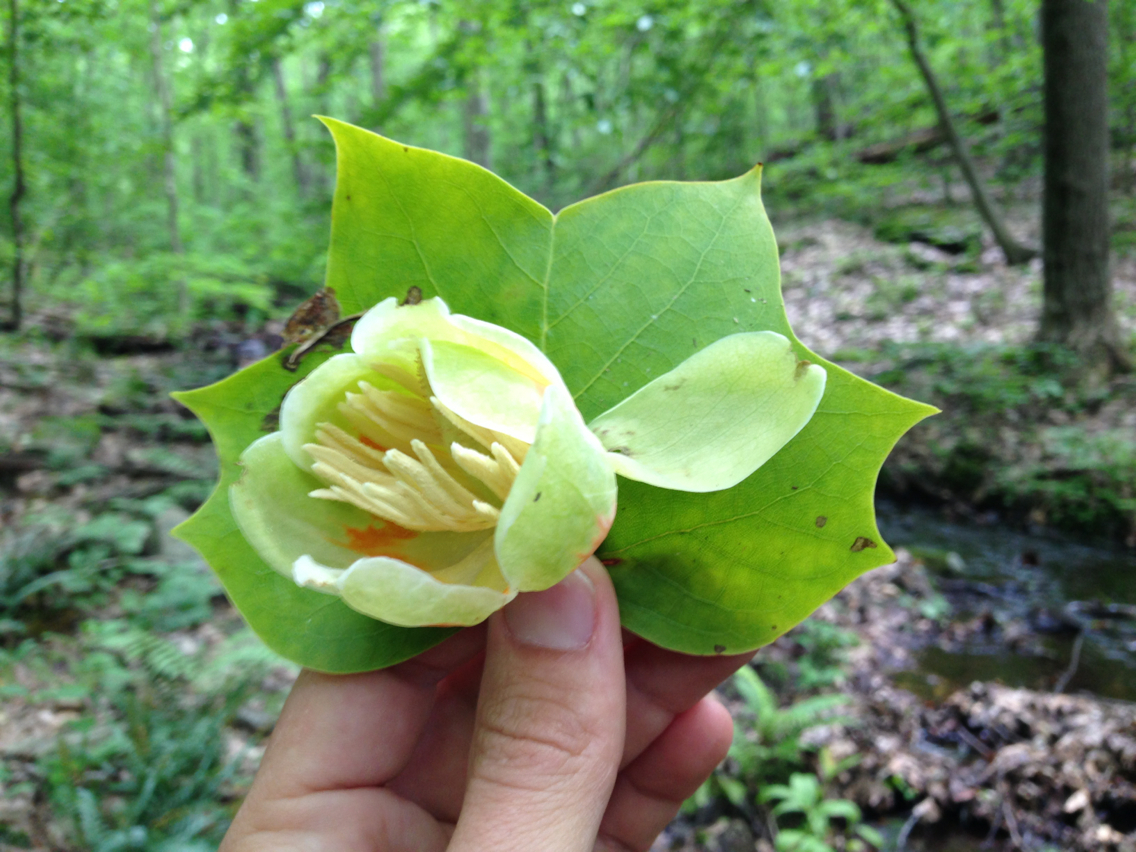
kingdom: Plantae
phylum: Tracheophyta
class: Magnoliopsida
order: Magnoliales
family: Magnoliaceae
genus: Liriodendron
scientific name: Liriodendron tulipifera
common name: Tulip tree
